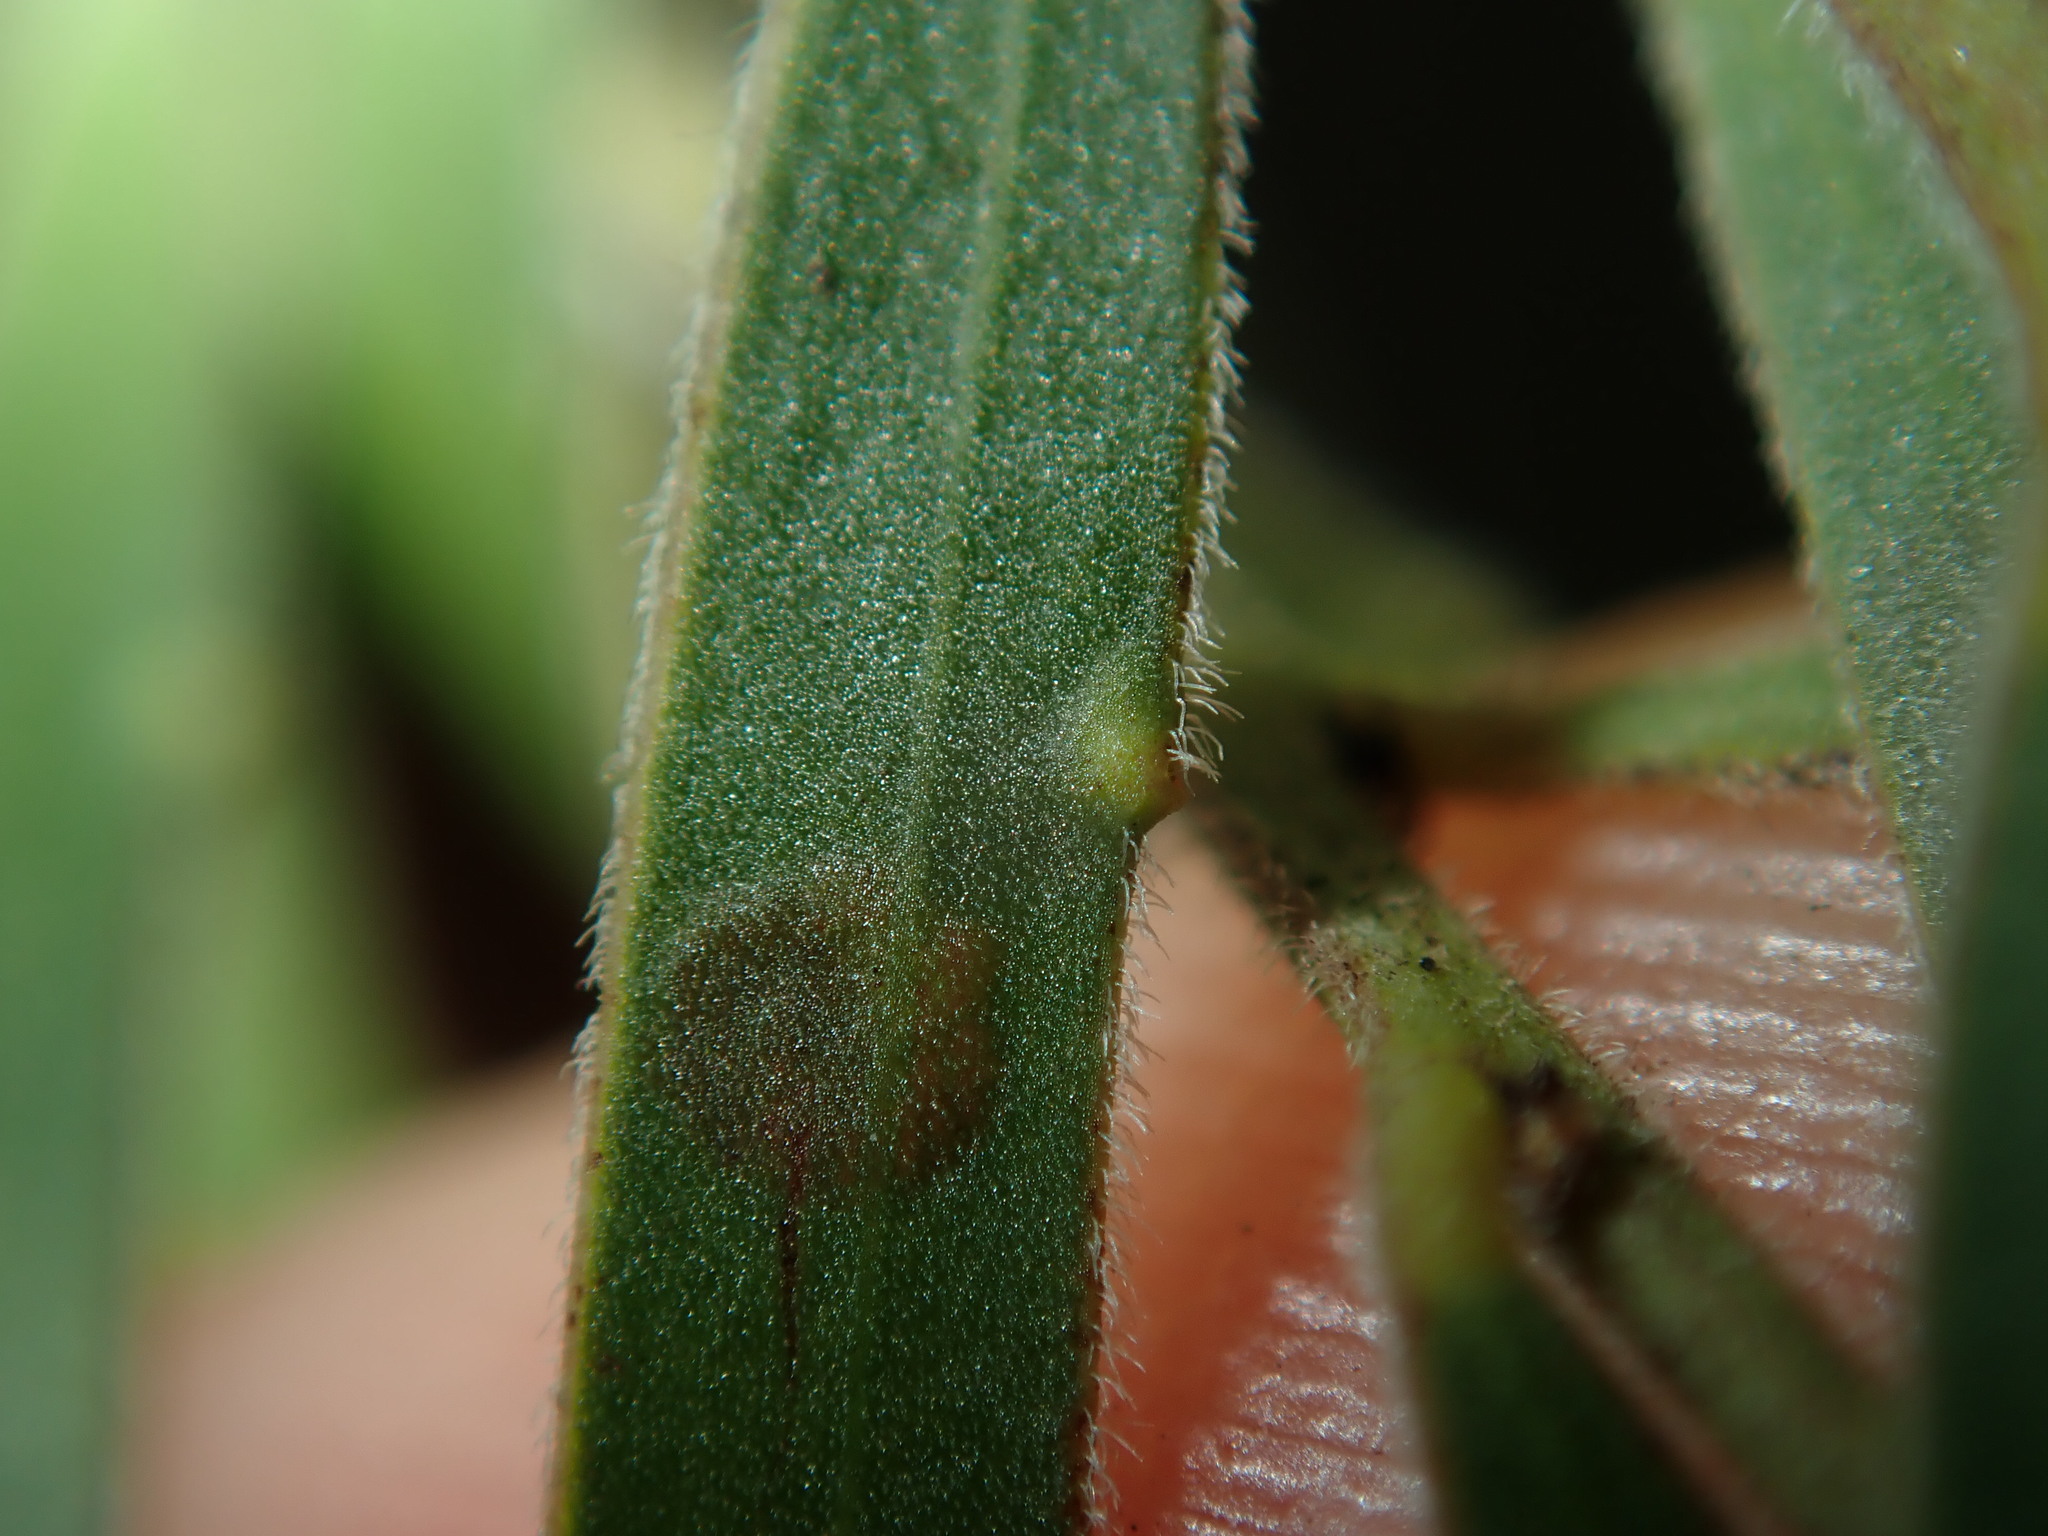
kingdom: Plantae
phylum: Tracheophyta
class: Magnoliopsida
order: Fabales
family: Fabaceae
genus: Acacia
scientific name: Acacia fimbriata
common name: Brisbane golden wattle
